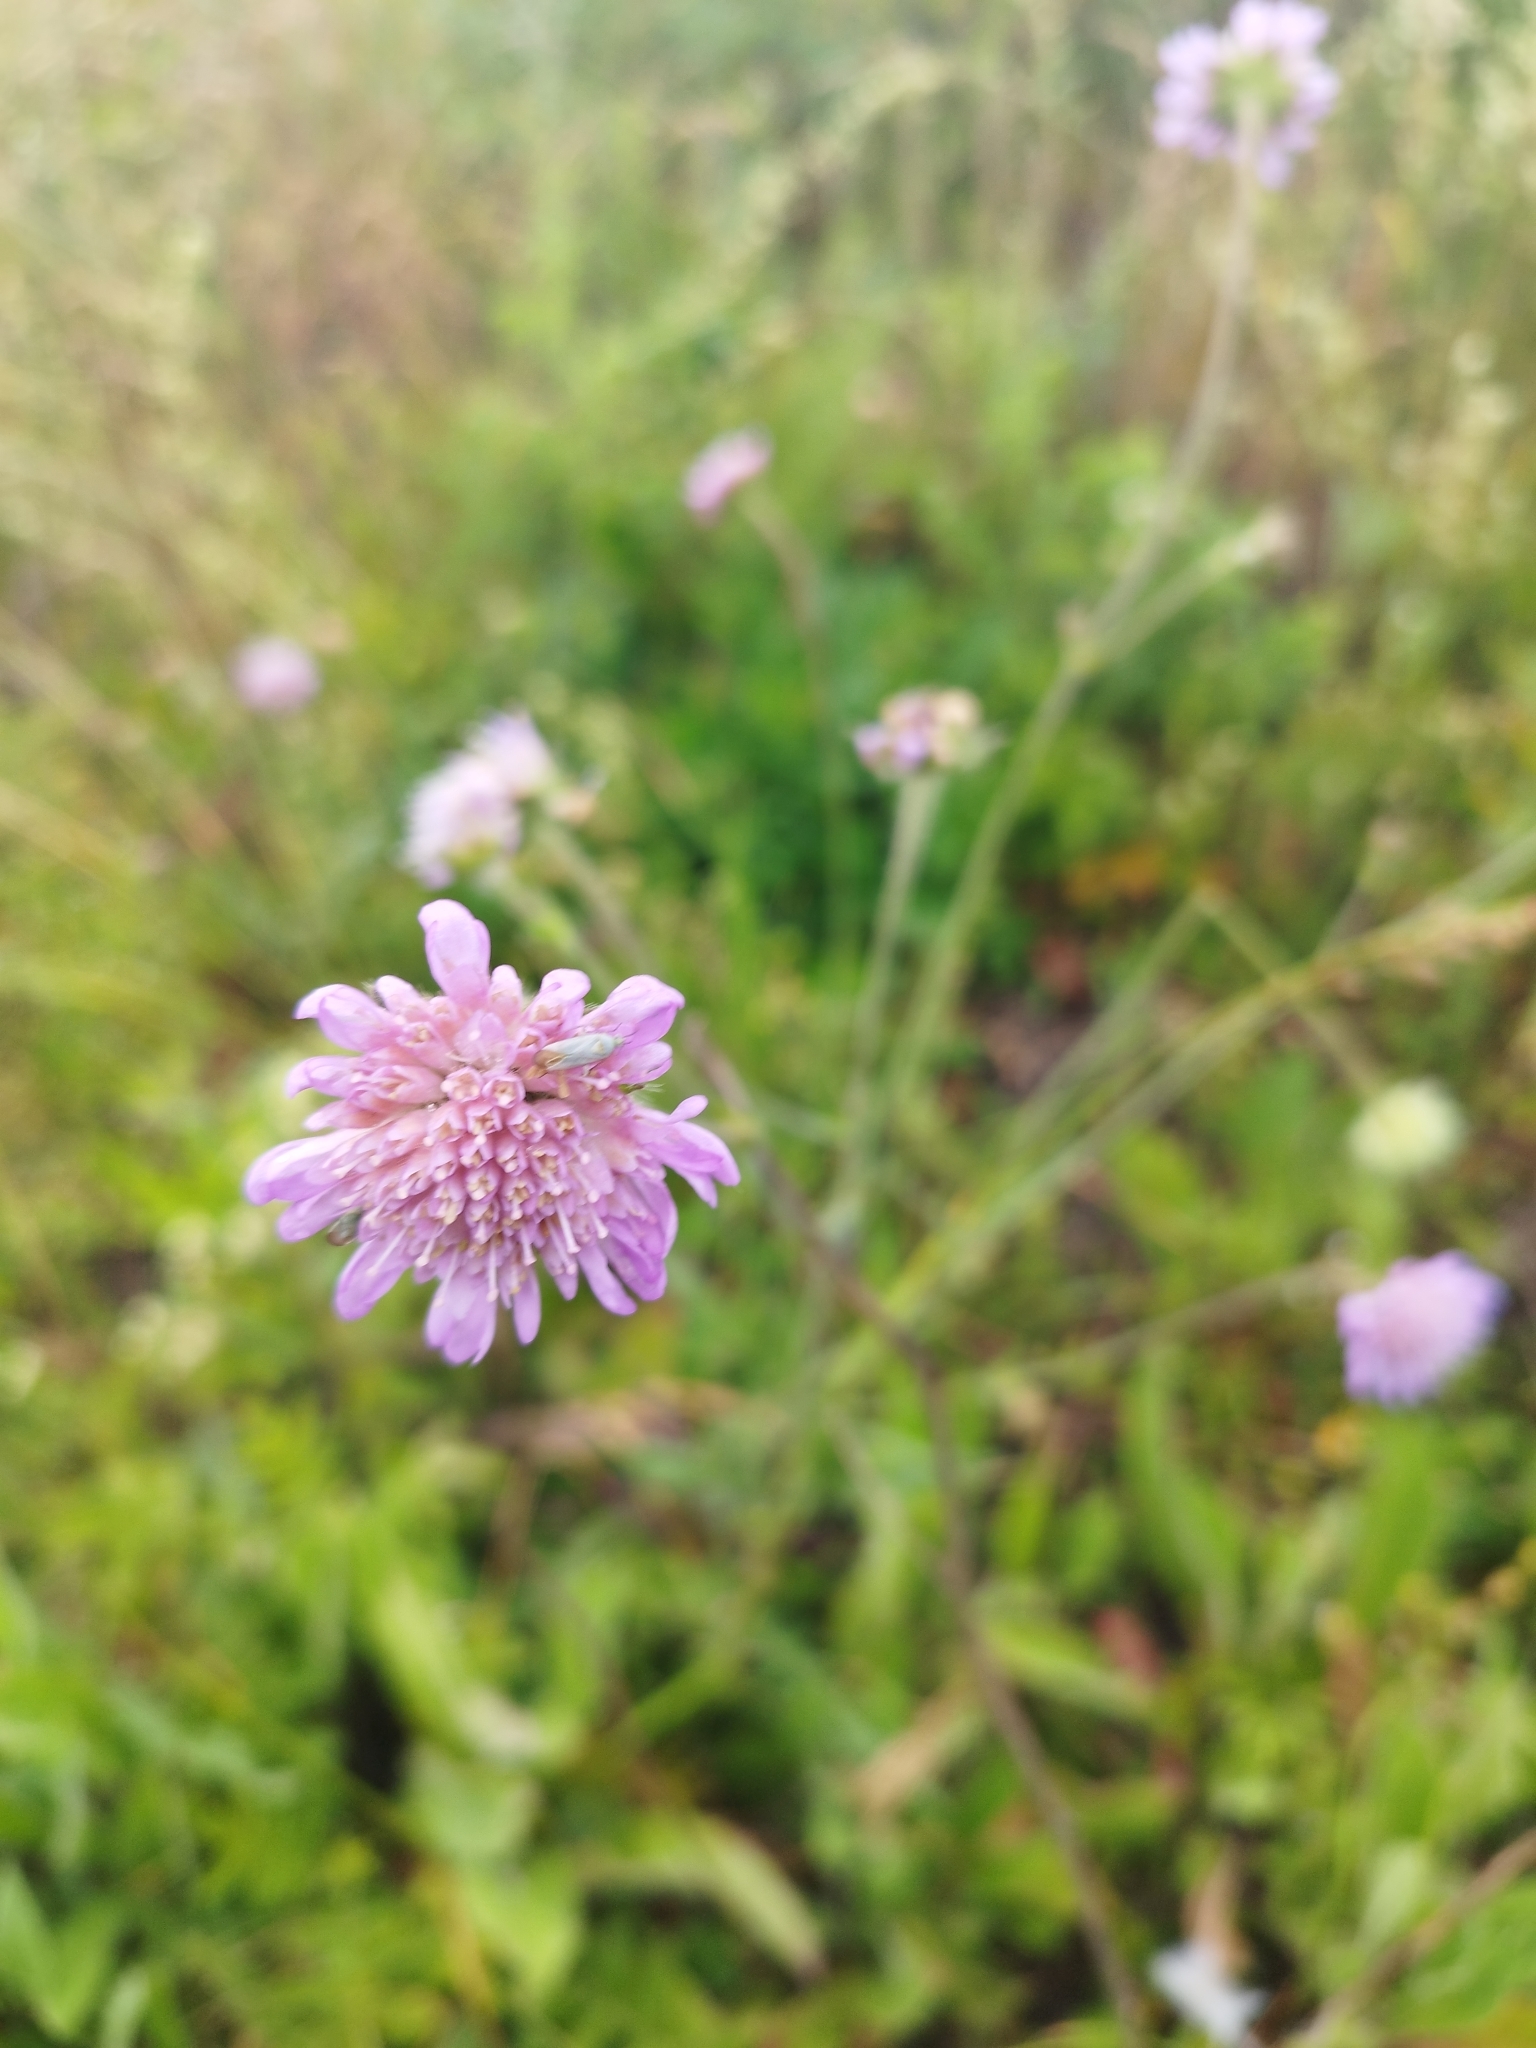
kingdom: Plantae
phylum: Tracheophyta
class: Magnoliopsida
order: Dipsacales
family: Caprifoliaceae
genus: Knautia
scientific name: Knautia arvensis
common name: Field scabiosa
